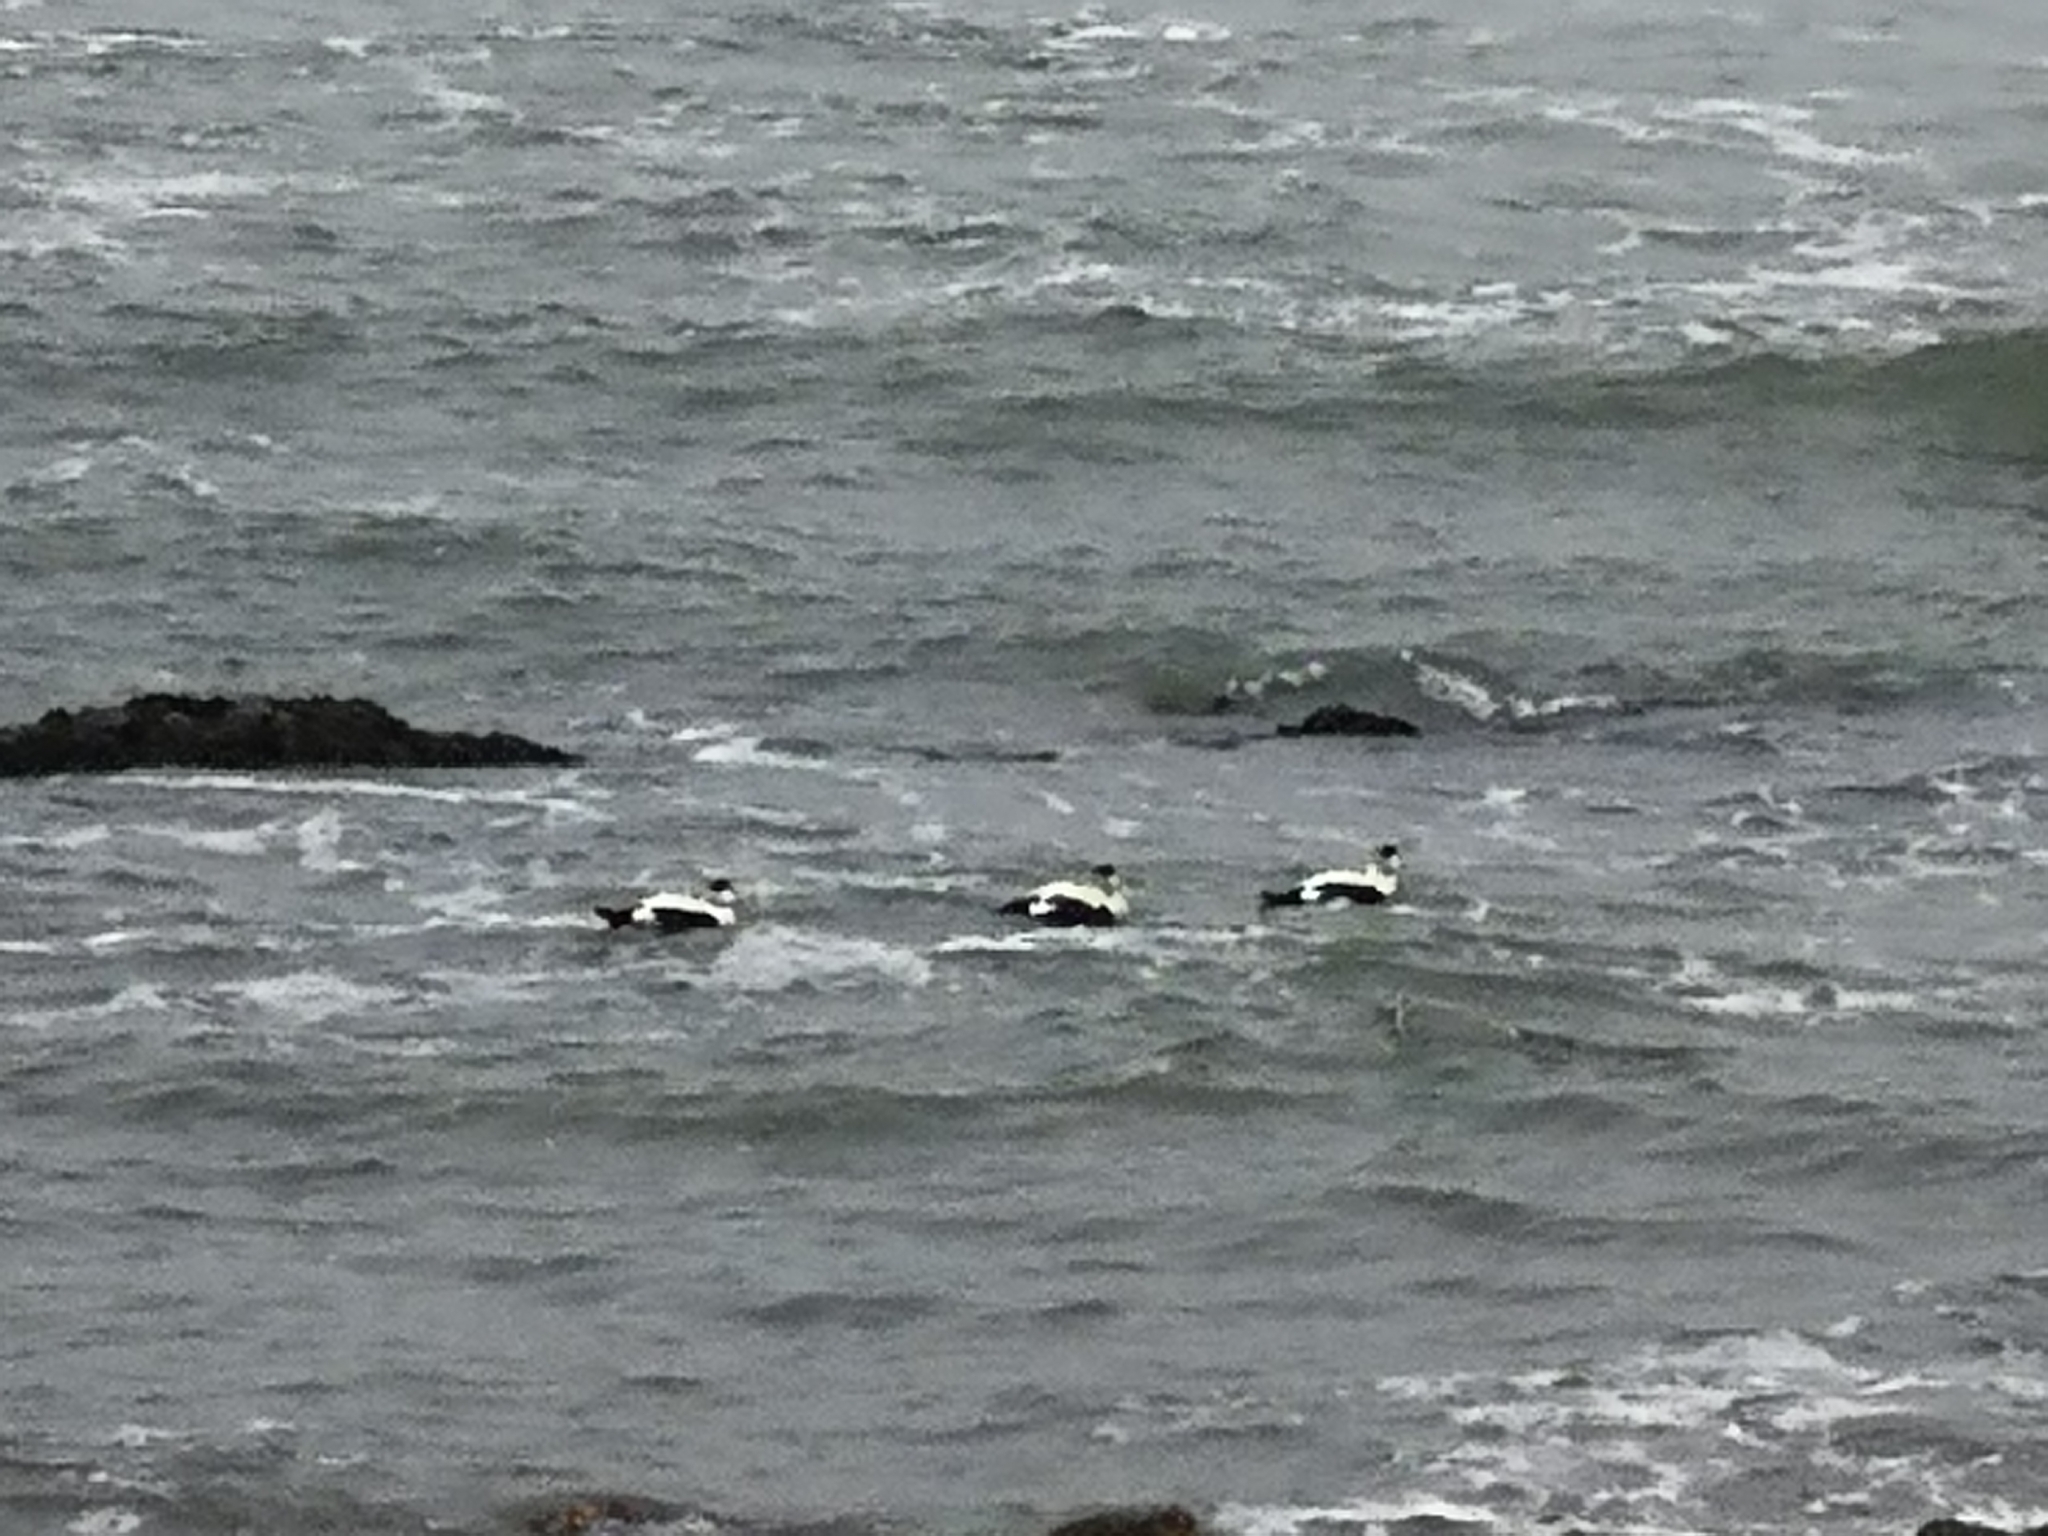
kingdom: Animalia
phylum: Chordata
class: Aves
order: Anseriformes
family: Anatidae
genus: Somateria
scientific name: Somateria mollissima
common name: Common eider
